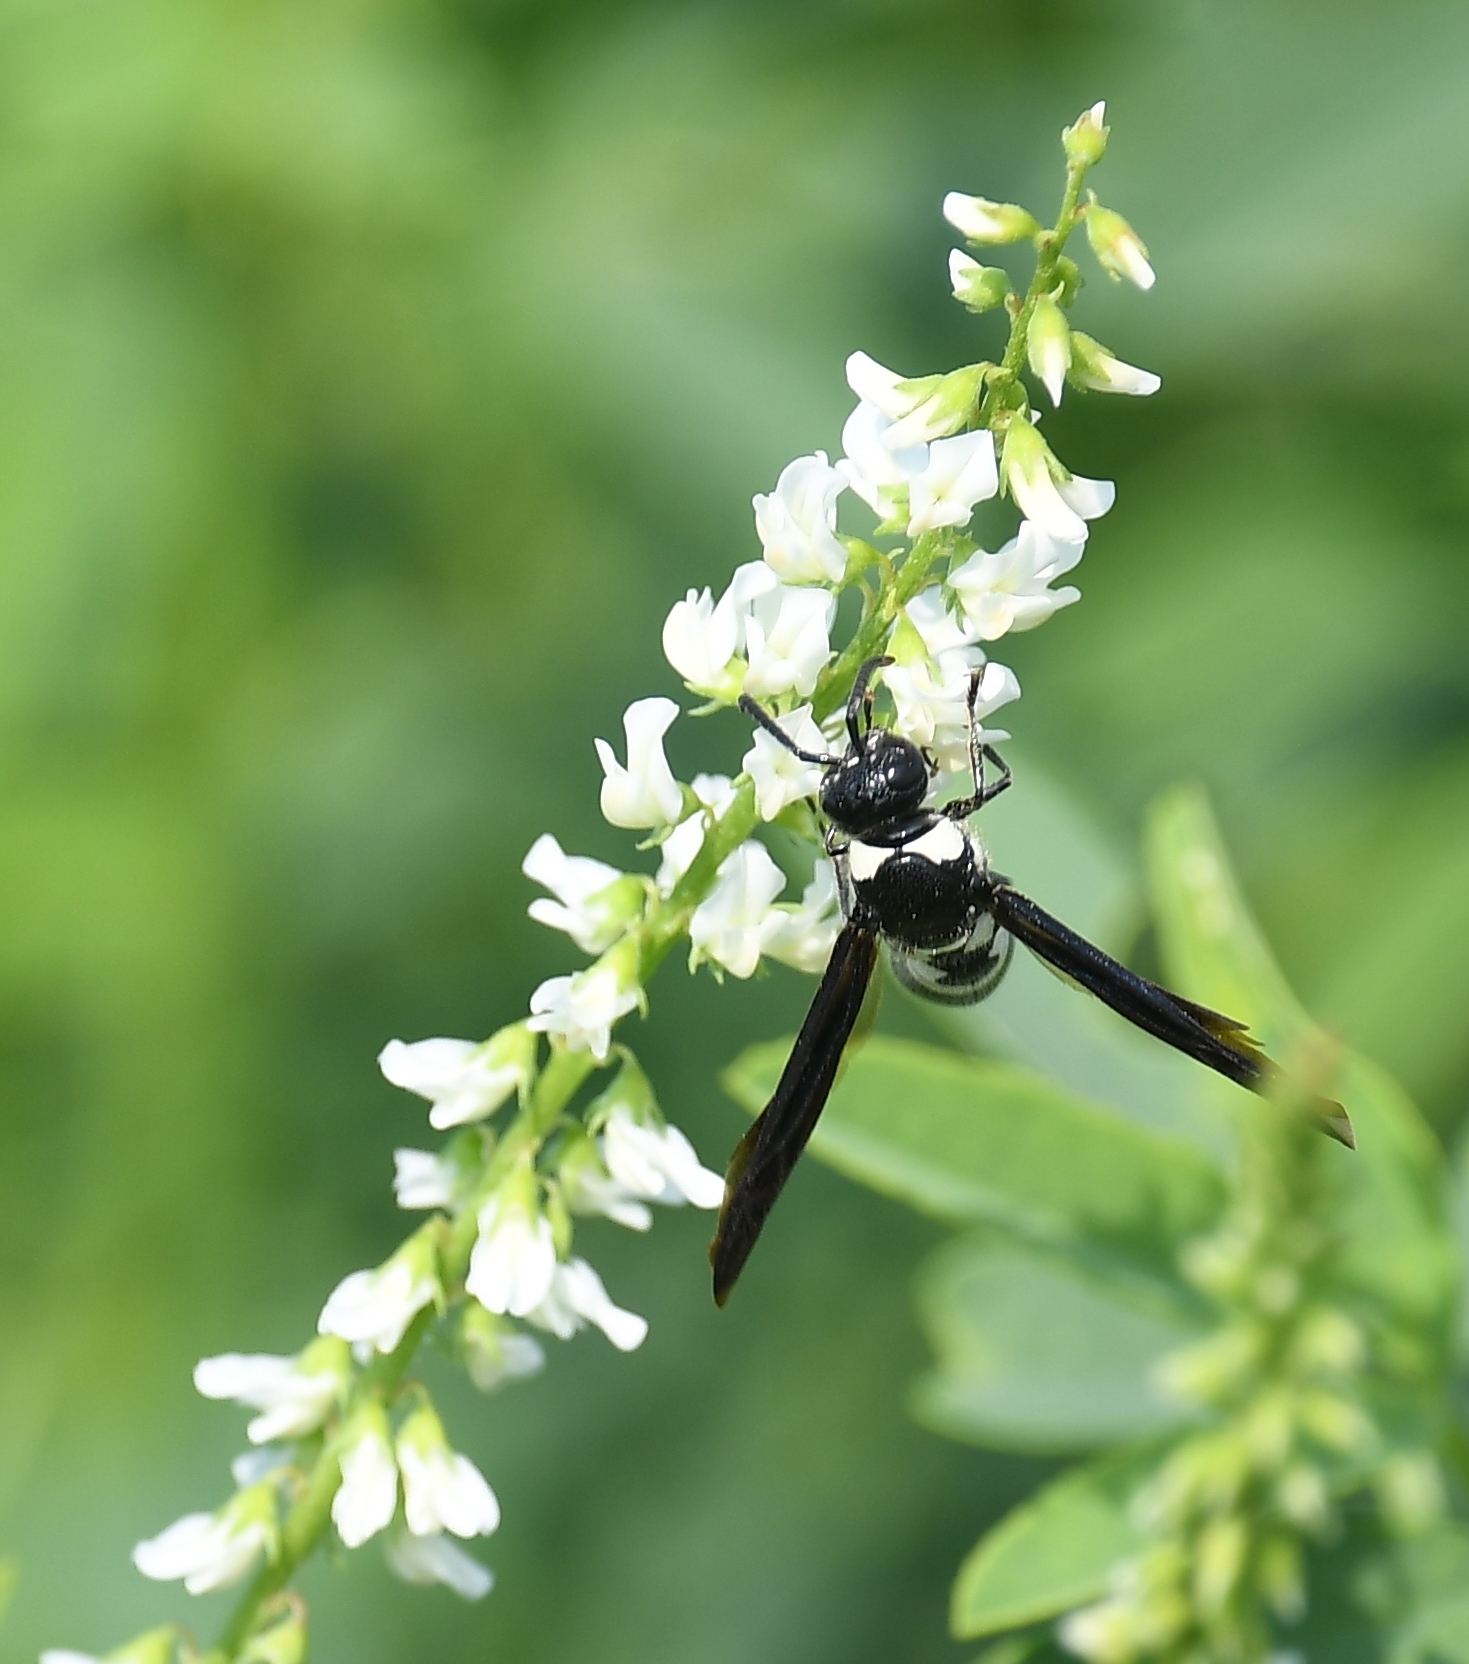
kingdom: Animalia
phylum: Arthropoda
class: Insecta
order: Hymenoptera
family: Eumenidae
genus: Pseudodynerus
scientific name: Pseudodynerus quadrisectus
